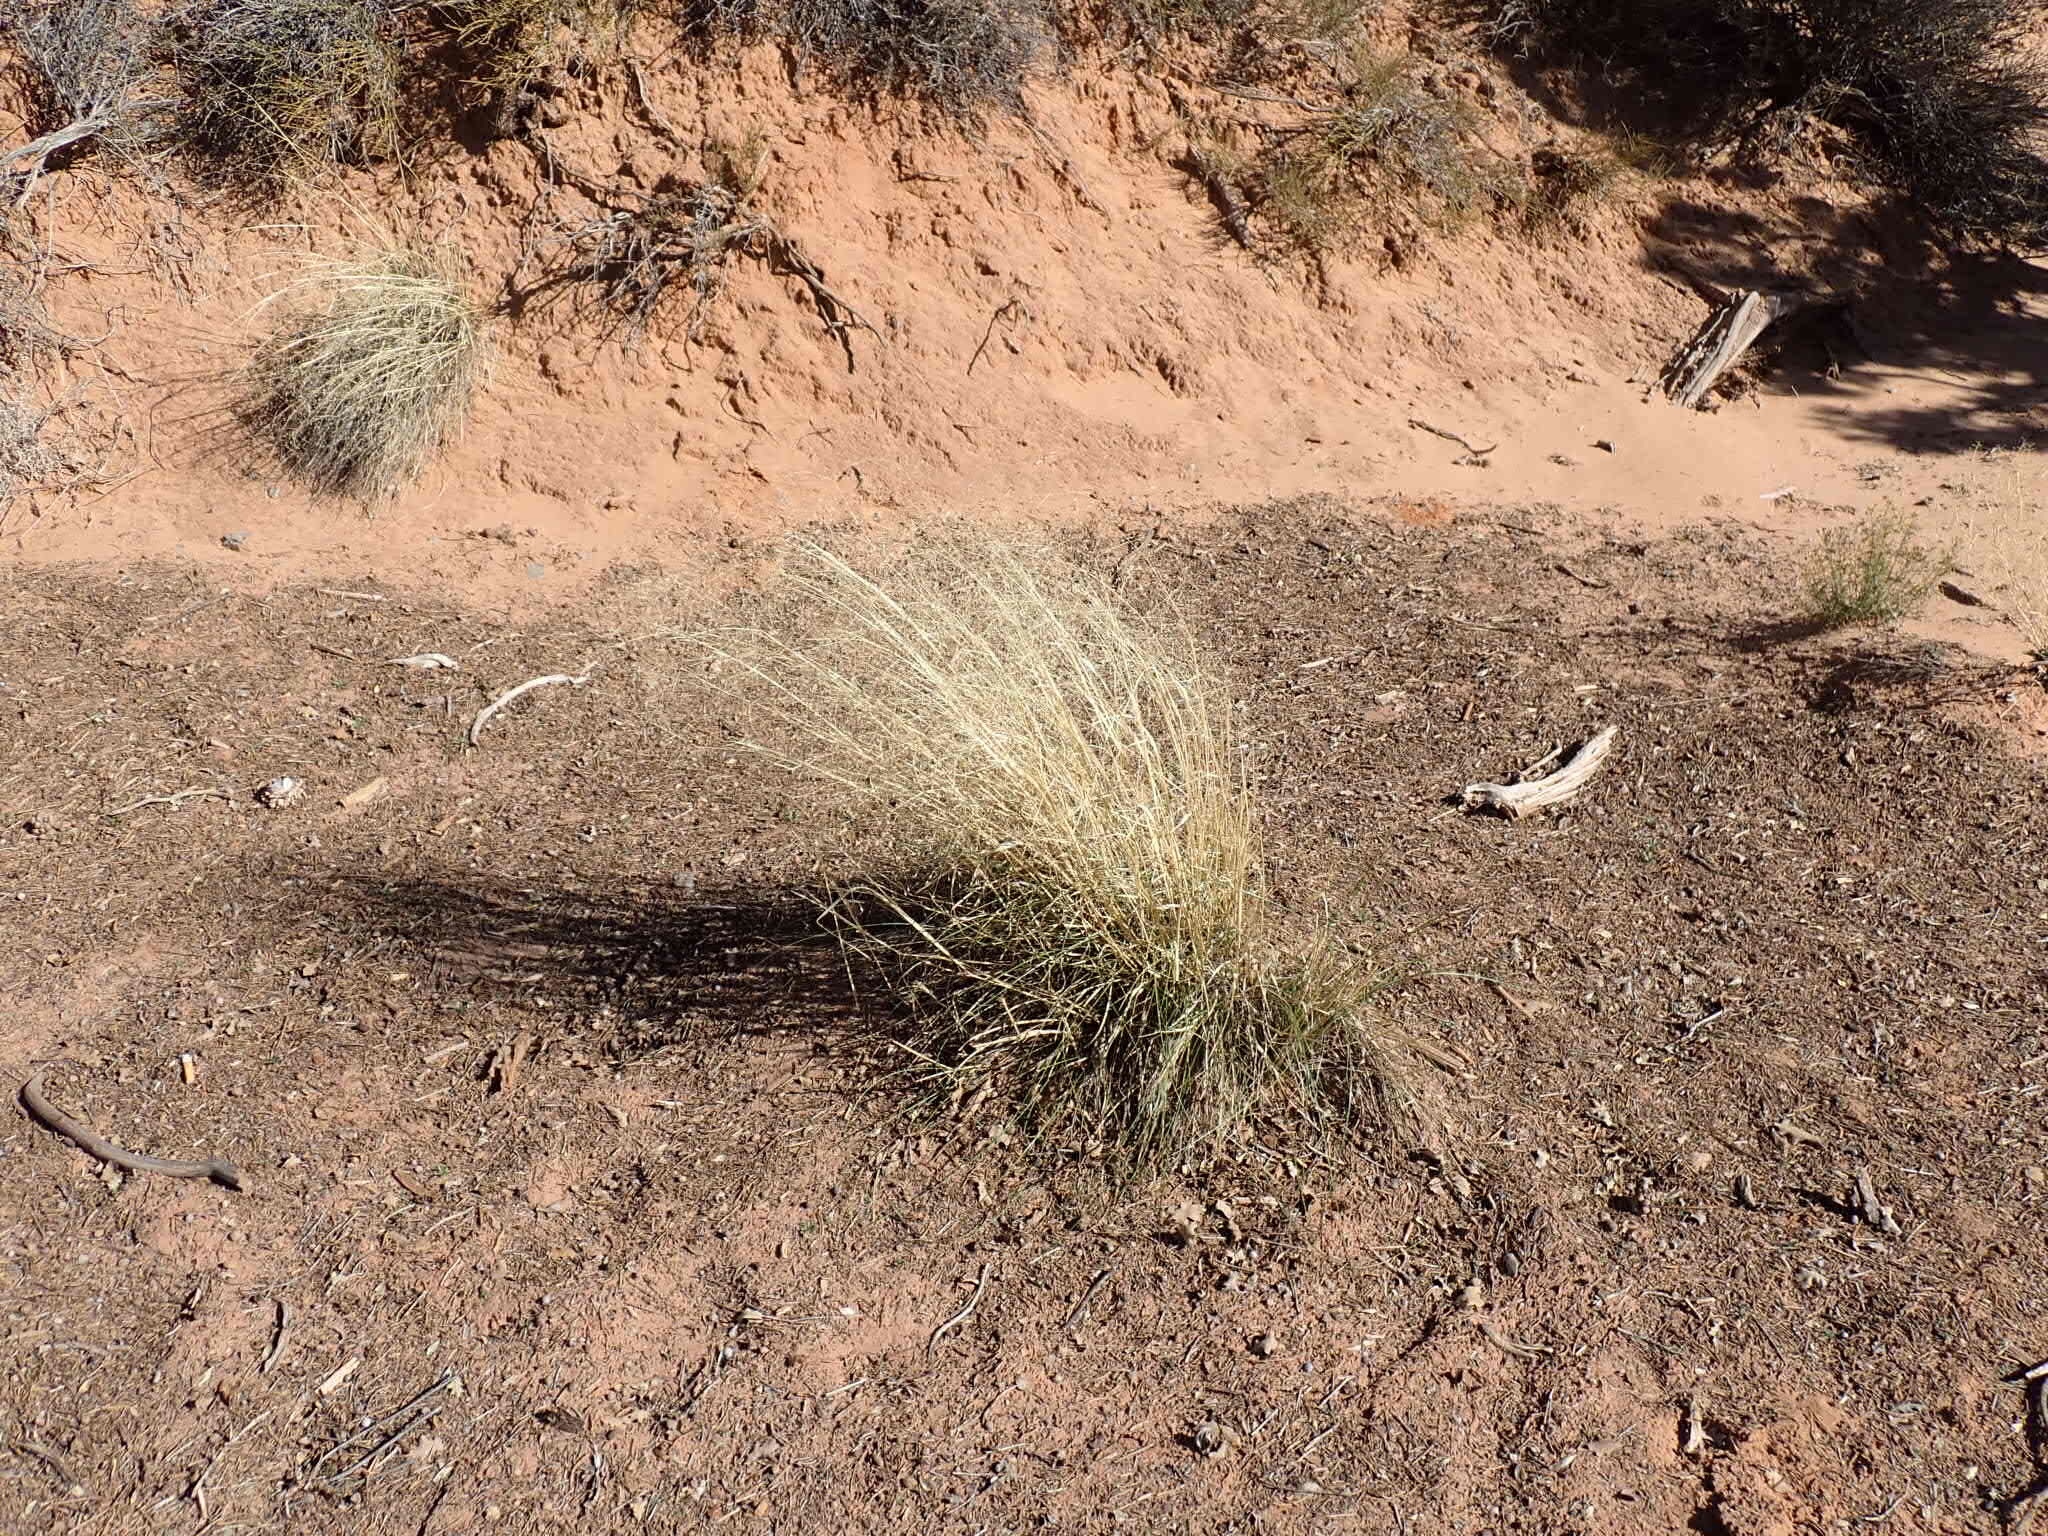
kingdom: Plantae
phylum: Tracheophyta
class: Liliopsida
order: Poales
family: Poaceae
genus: Eriocoma
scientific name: Eriocoma hymenoides
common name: Indian mountain ricegrass
